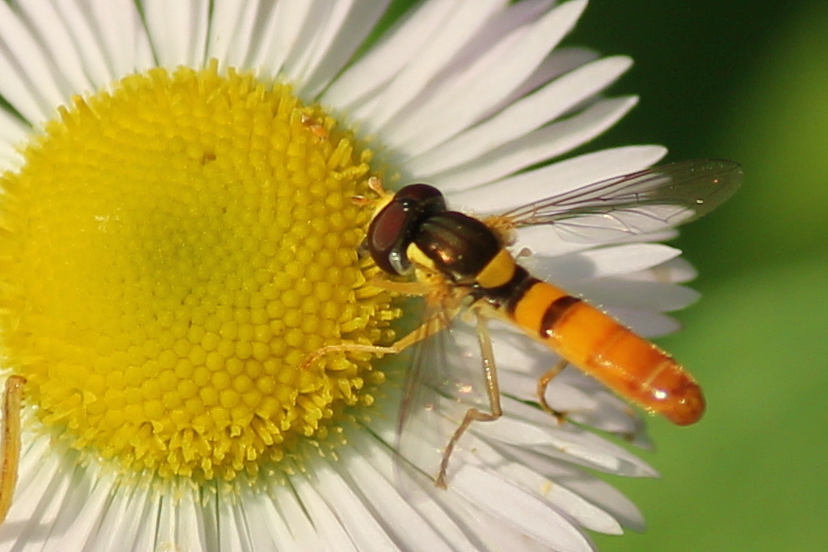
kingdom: Animalia
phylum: Arthropoda
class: Insecta
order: Diptera
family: Syrphidae
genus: Sphaerophoria
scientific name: Sphaerophoria contigua
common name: Tufted globetail
